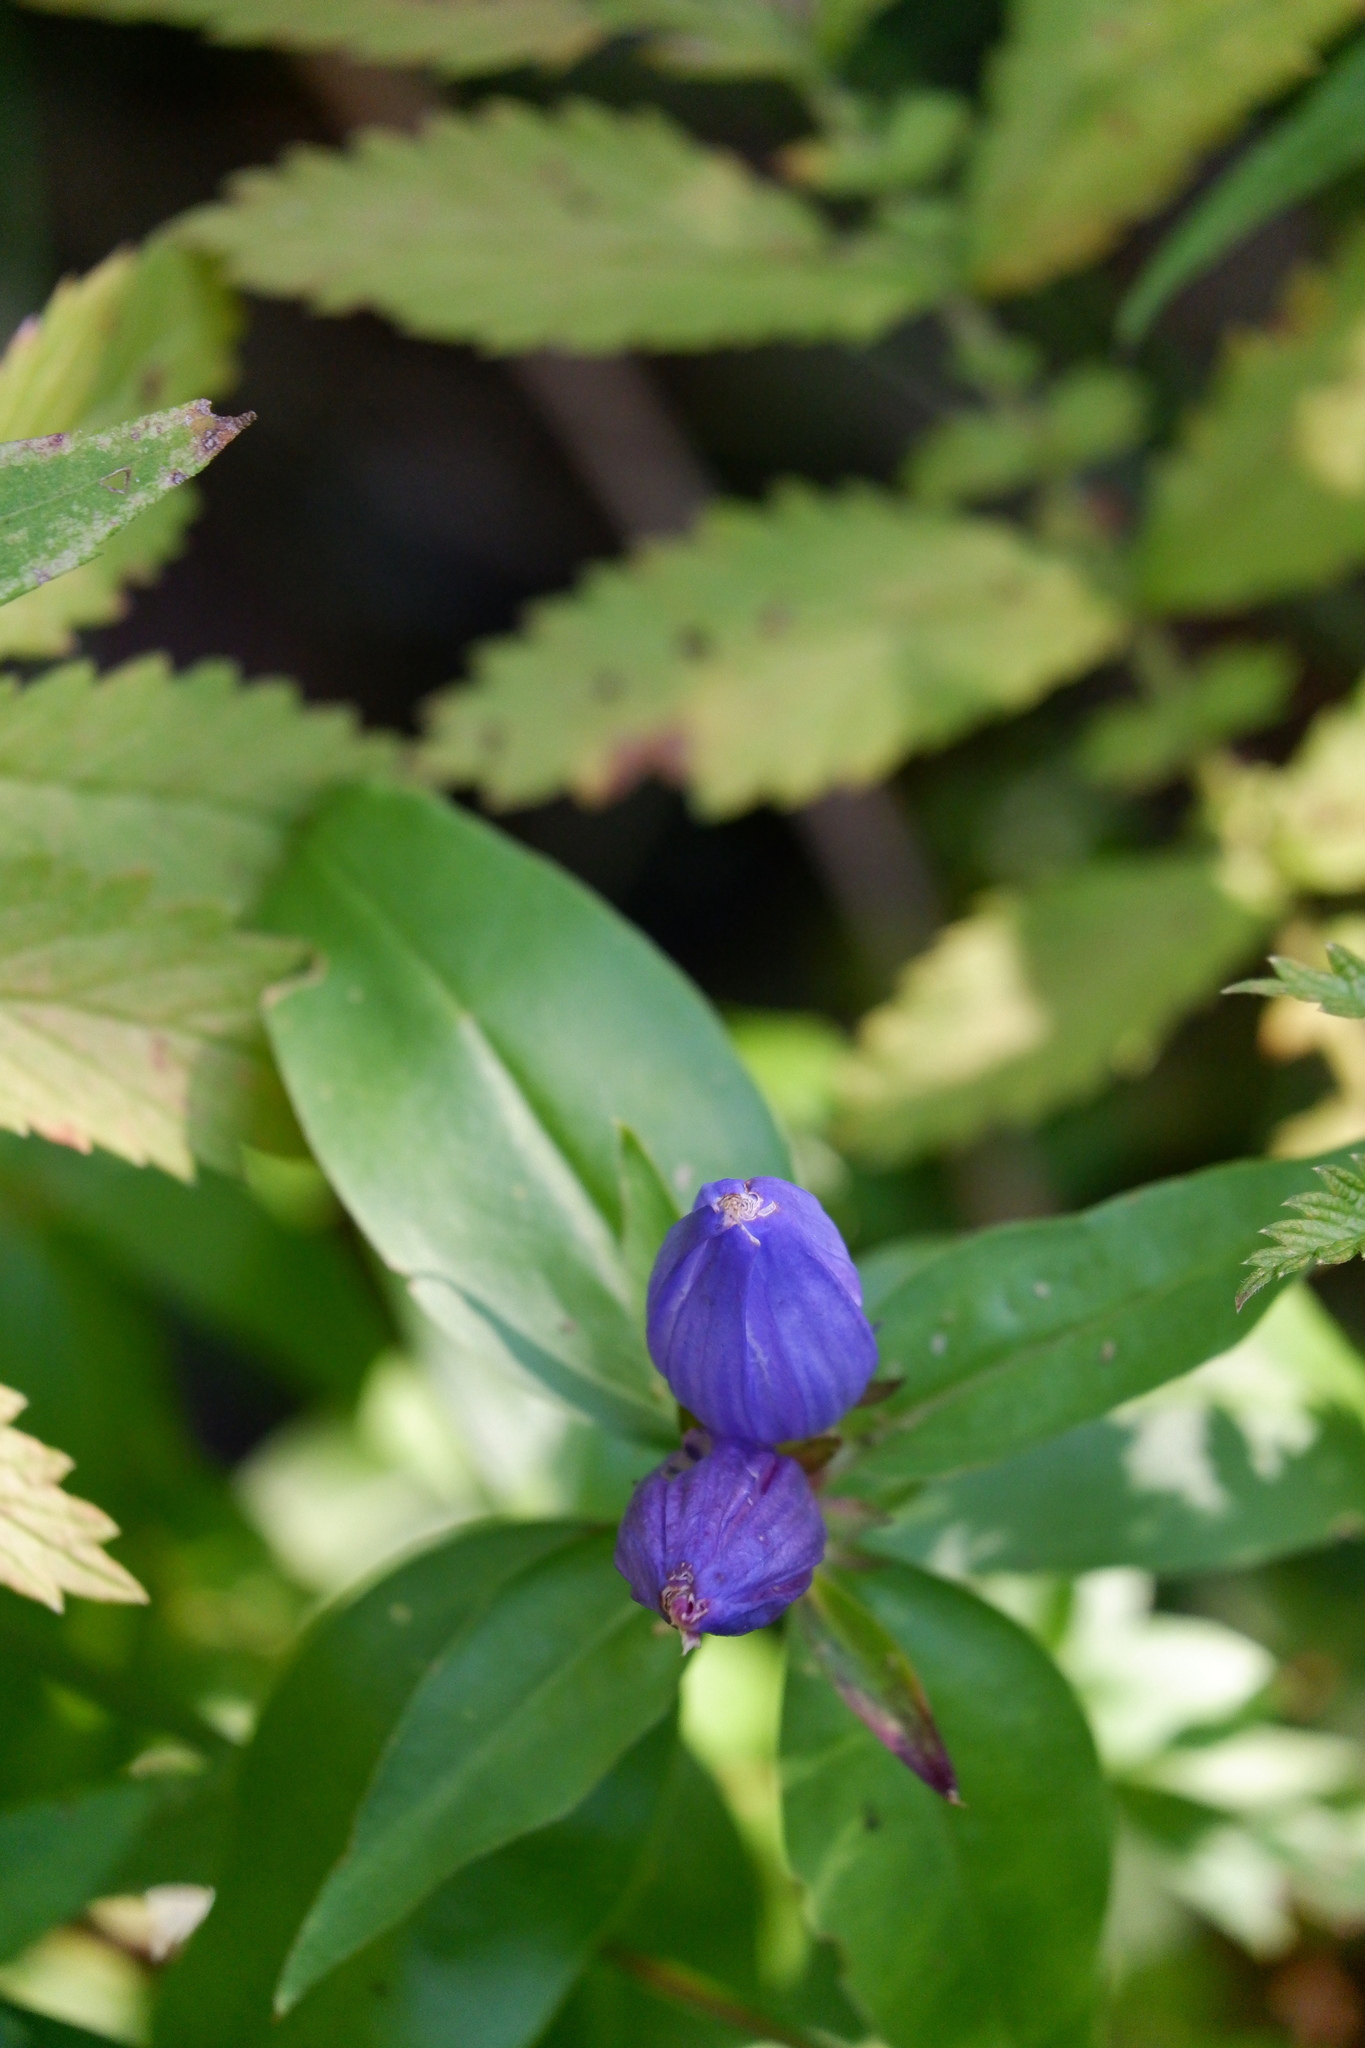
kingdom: Plantae
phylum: Tracheophyta
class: Magnoliopsida
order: Gentianales
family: Gentianaceae
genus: Gentiana
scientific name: Gentiana andrewsii
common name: Bottle gentian
